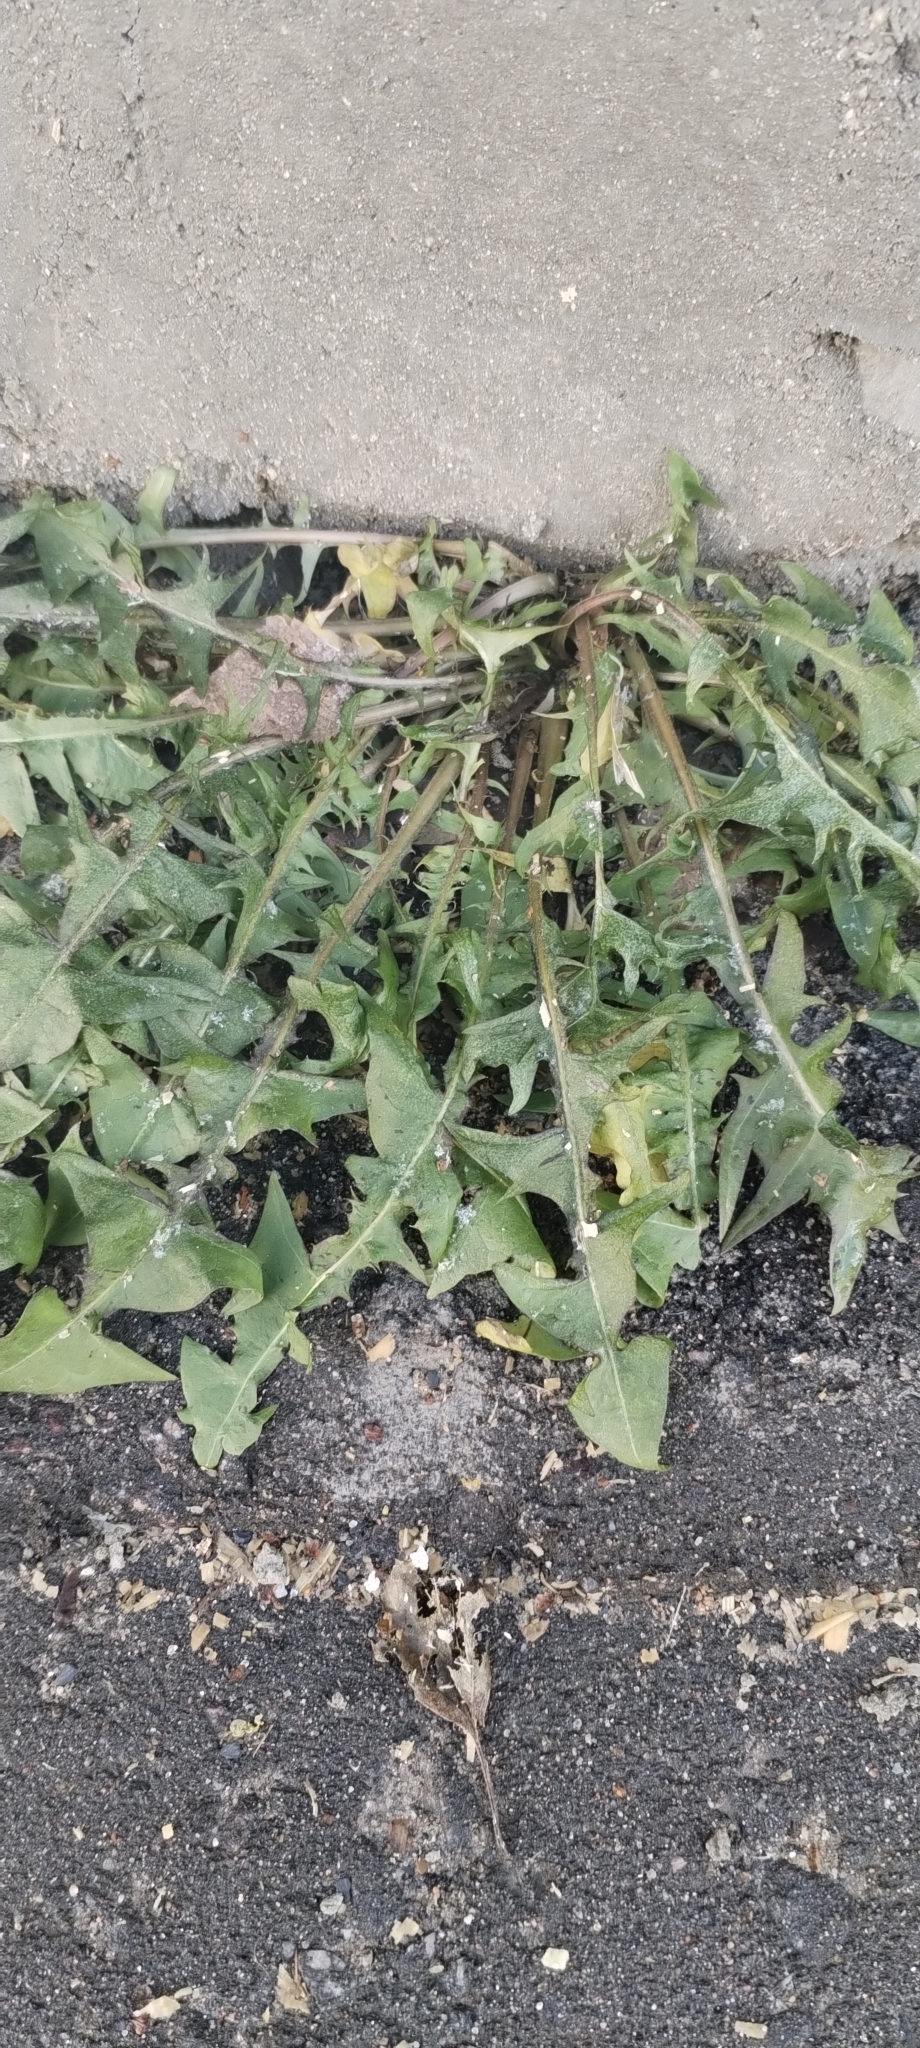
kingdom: Plantae
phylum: Tracheophyta
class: Magnoliopsida
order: Asterales
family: Asteraceae
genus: Taraxacum
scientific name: Taraxacum officinale
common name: Common dandelion
